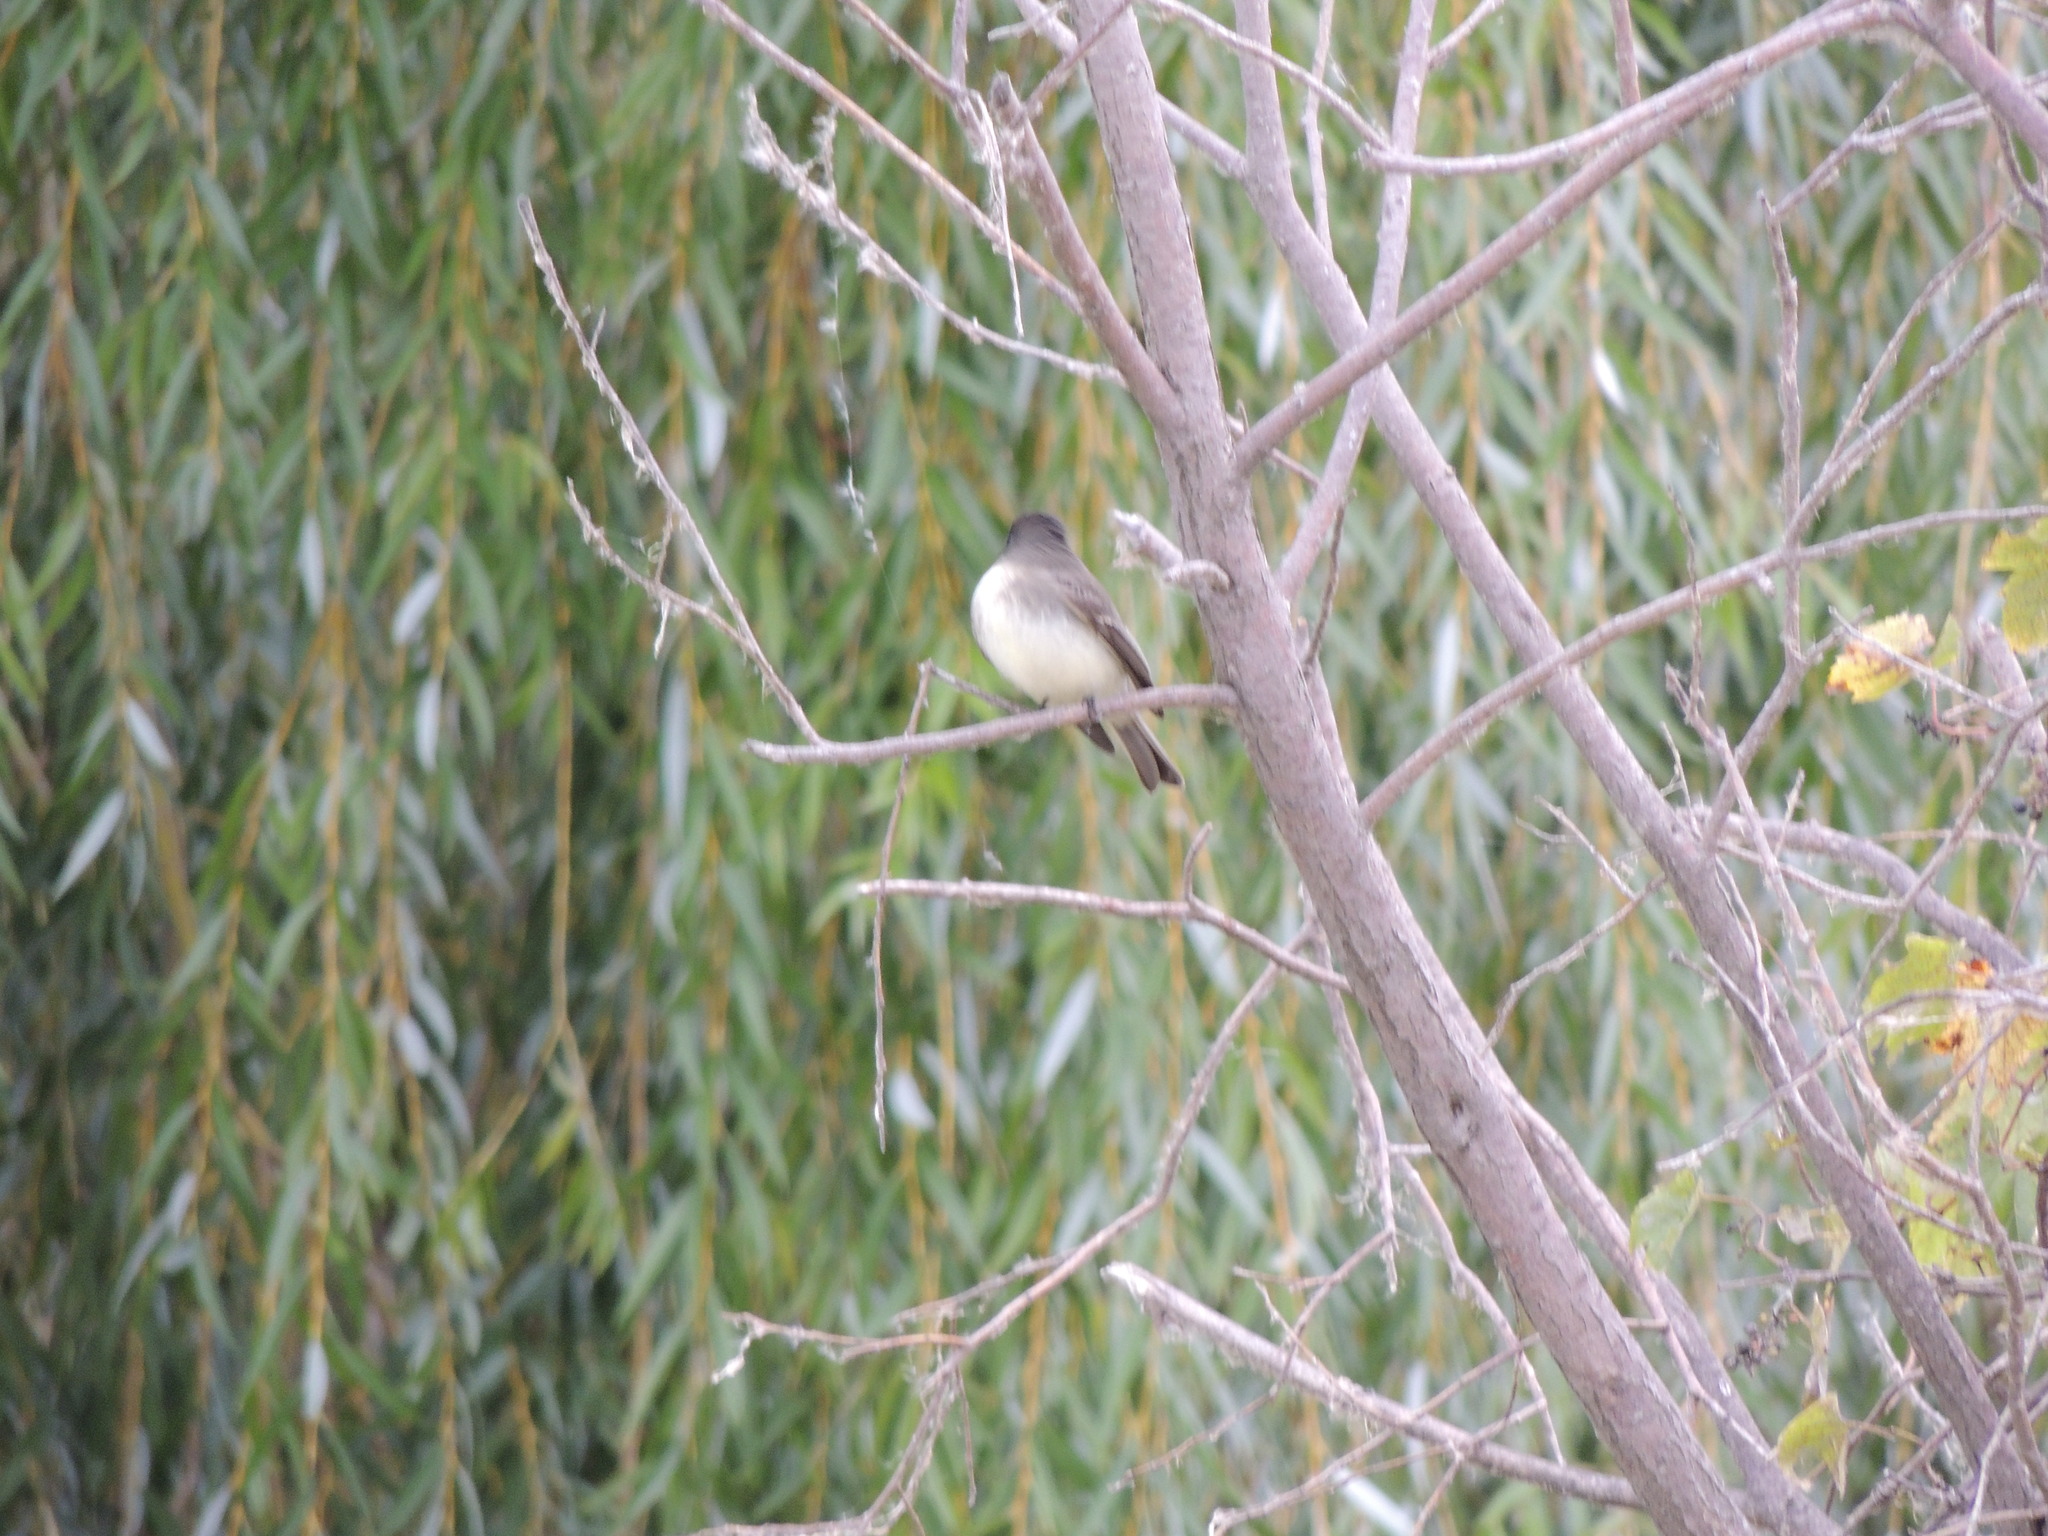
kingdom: Animalia
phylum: Chordata
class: Aves
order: Passeriformes
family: Tyrannidae
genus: Sayornis
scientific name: Sayornis phoebe
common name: Eastern phoebe
